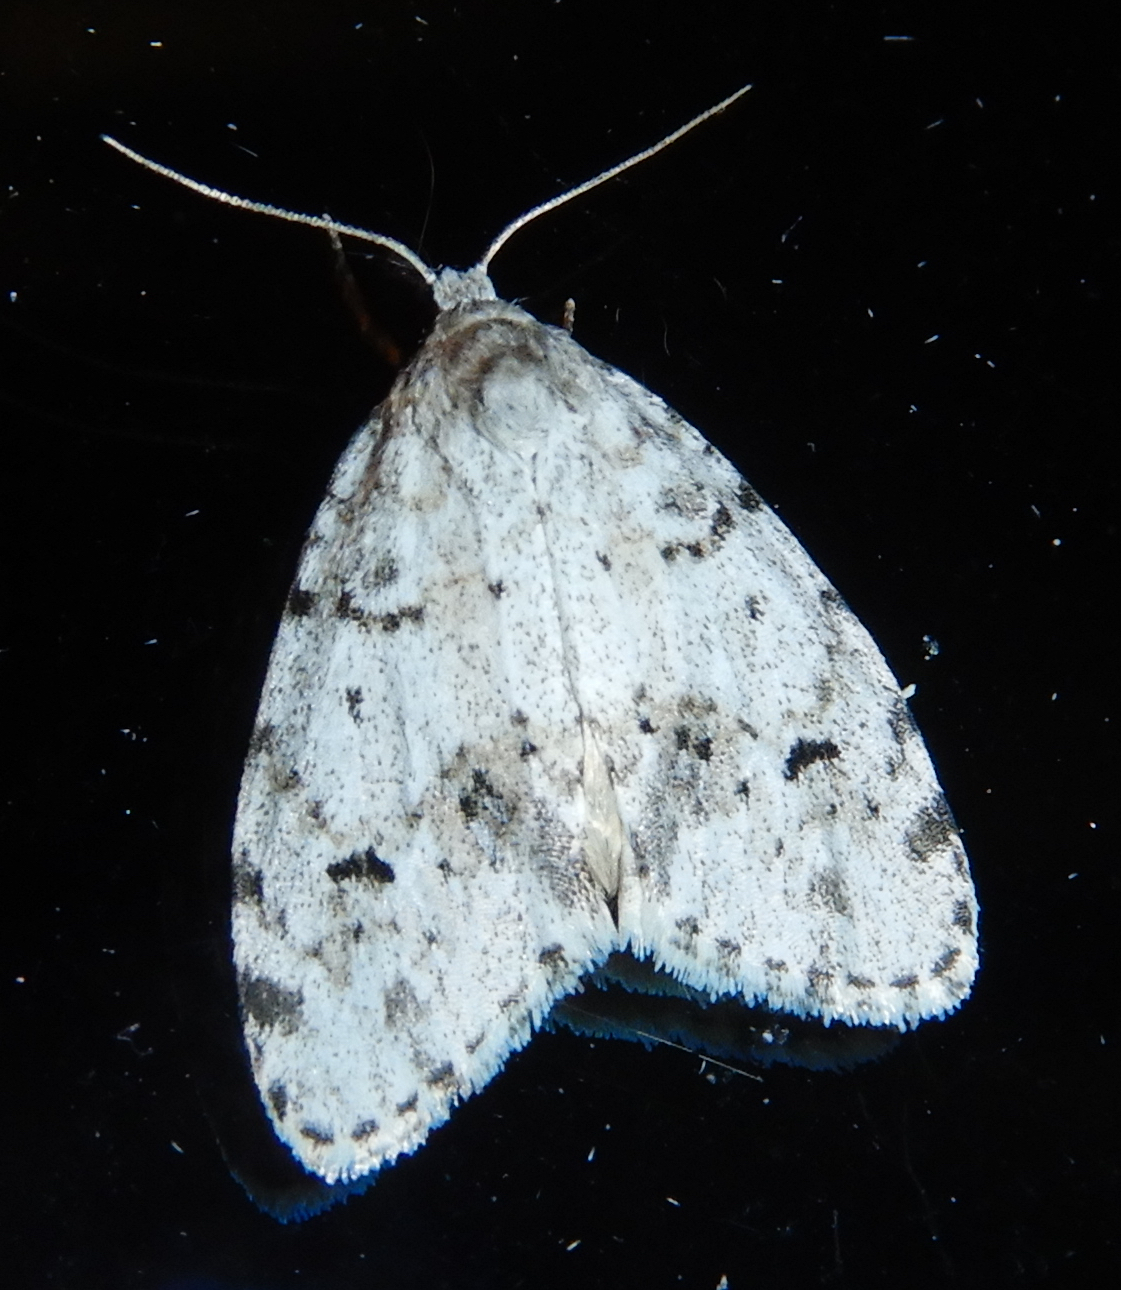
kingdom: Animalia
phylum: Arthropoda
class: Insecta
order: Lepidoptera
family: Erebidae
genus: Clemensia
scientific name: Clemensia albata
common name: Little white lichen moth
